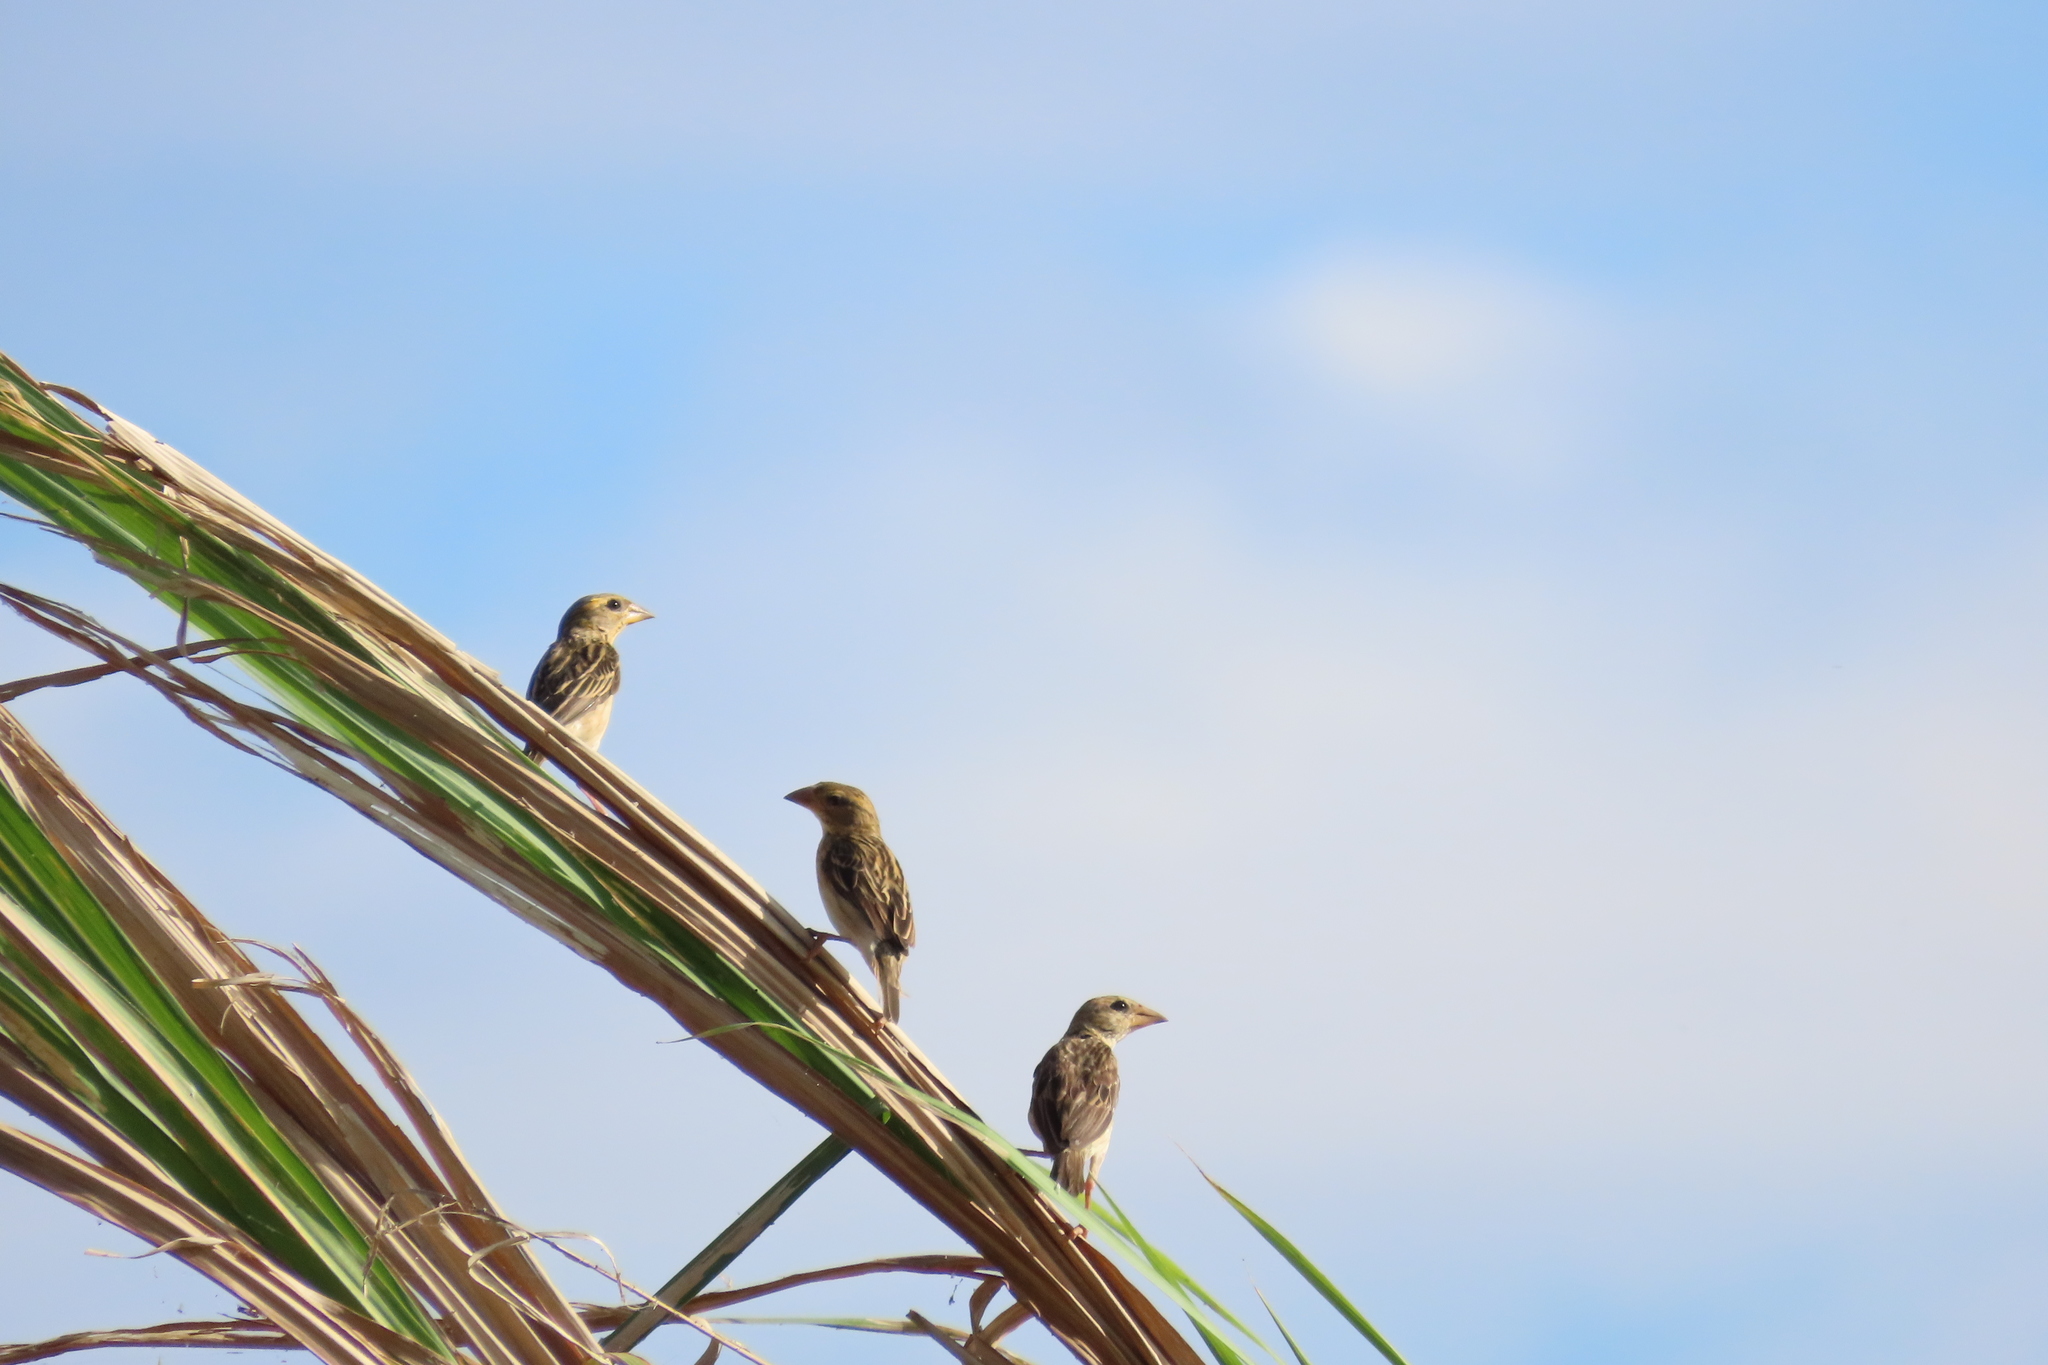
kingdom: Animalia
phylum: Chordata
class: Aves
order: Passeriformes
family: Ploceidae
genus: Ploceus
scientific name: Ploceus philippinus
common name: Baya weaver
